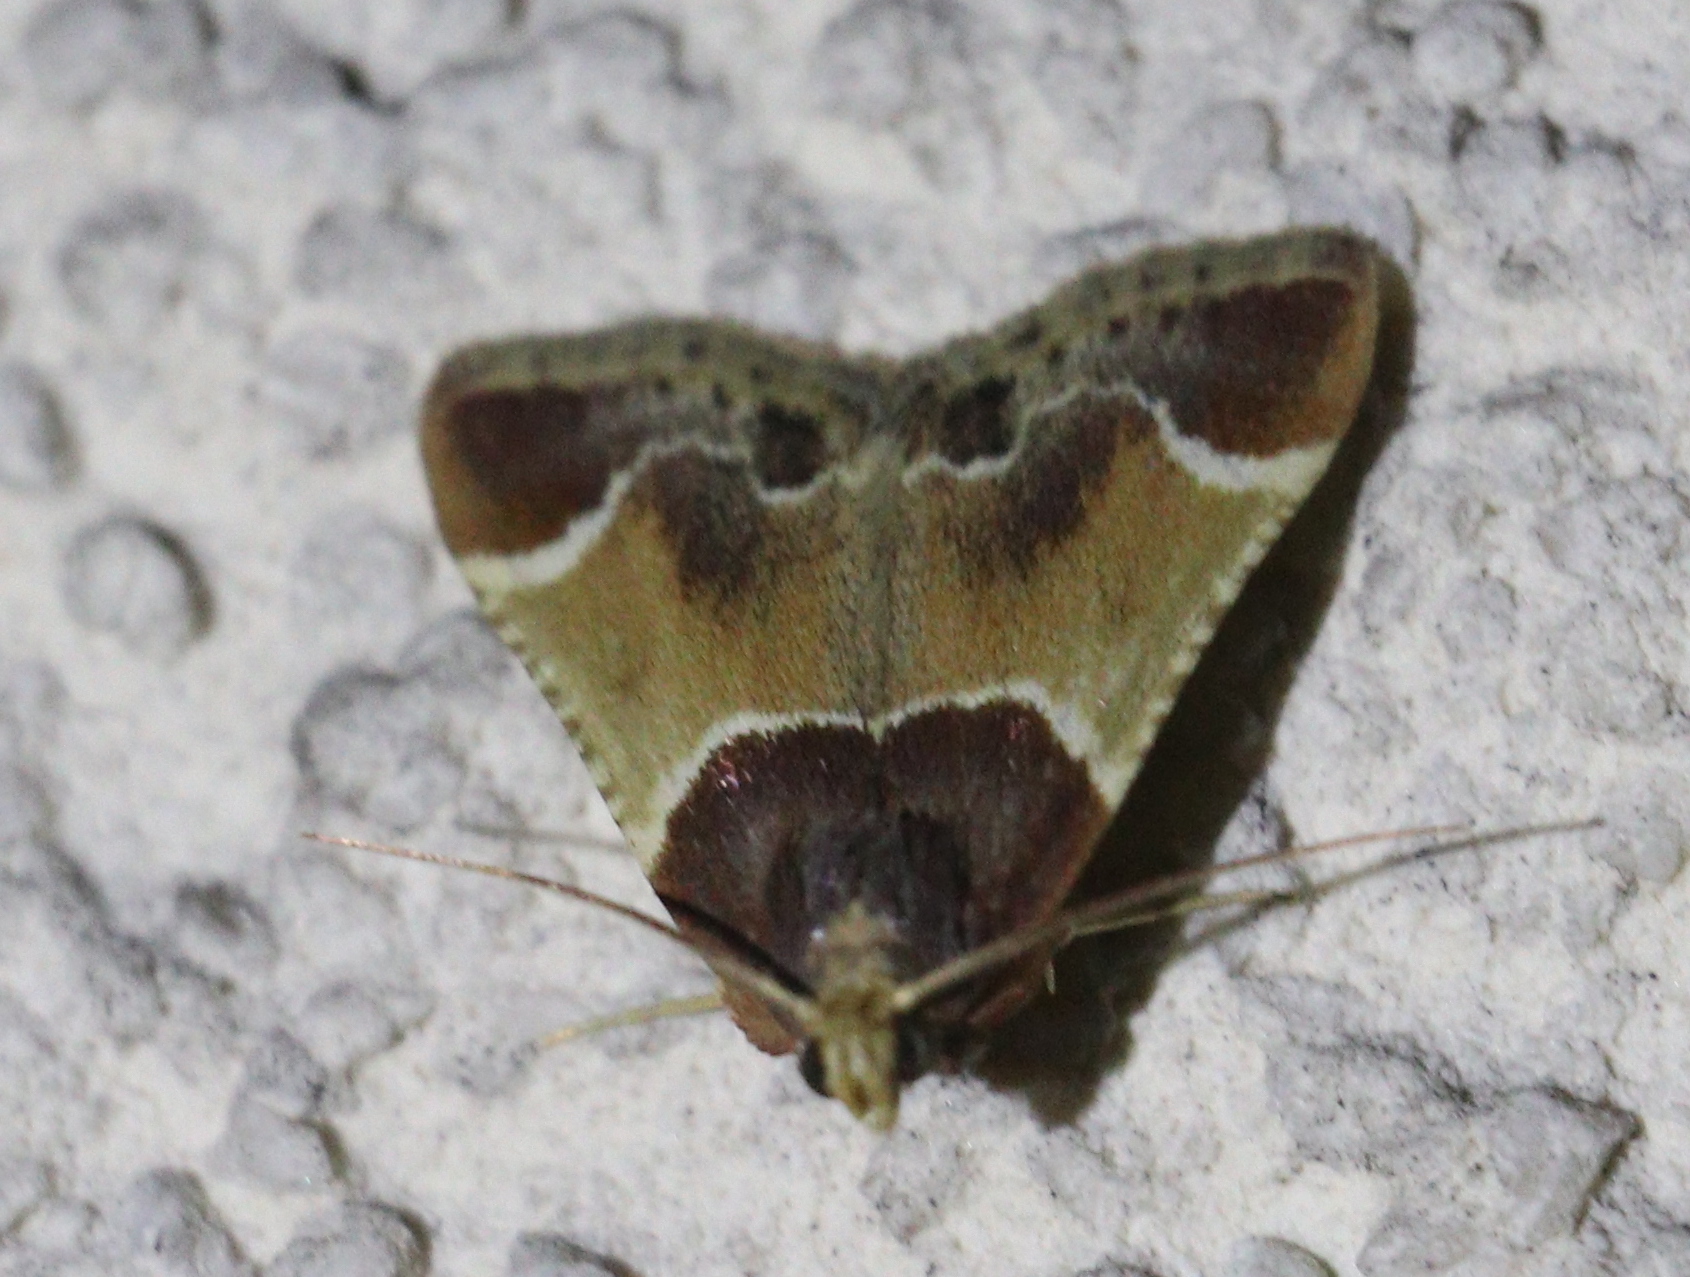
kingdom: Animalia
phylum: Arthropoda
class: Insecta
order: Lepidoptera
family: Pyralidae
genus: Pyralis
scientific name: Pyralis farinalis
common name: Meal moth
